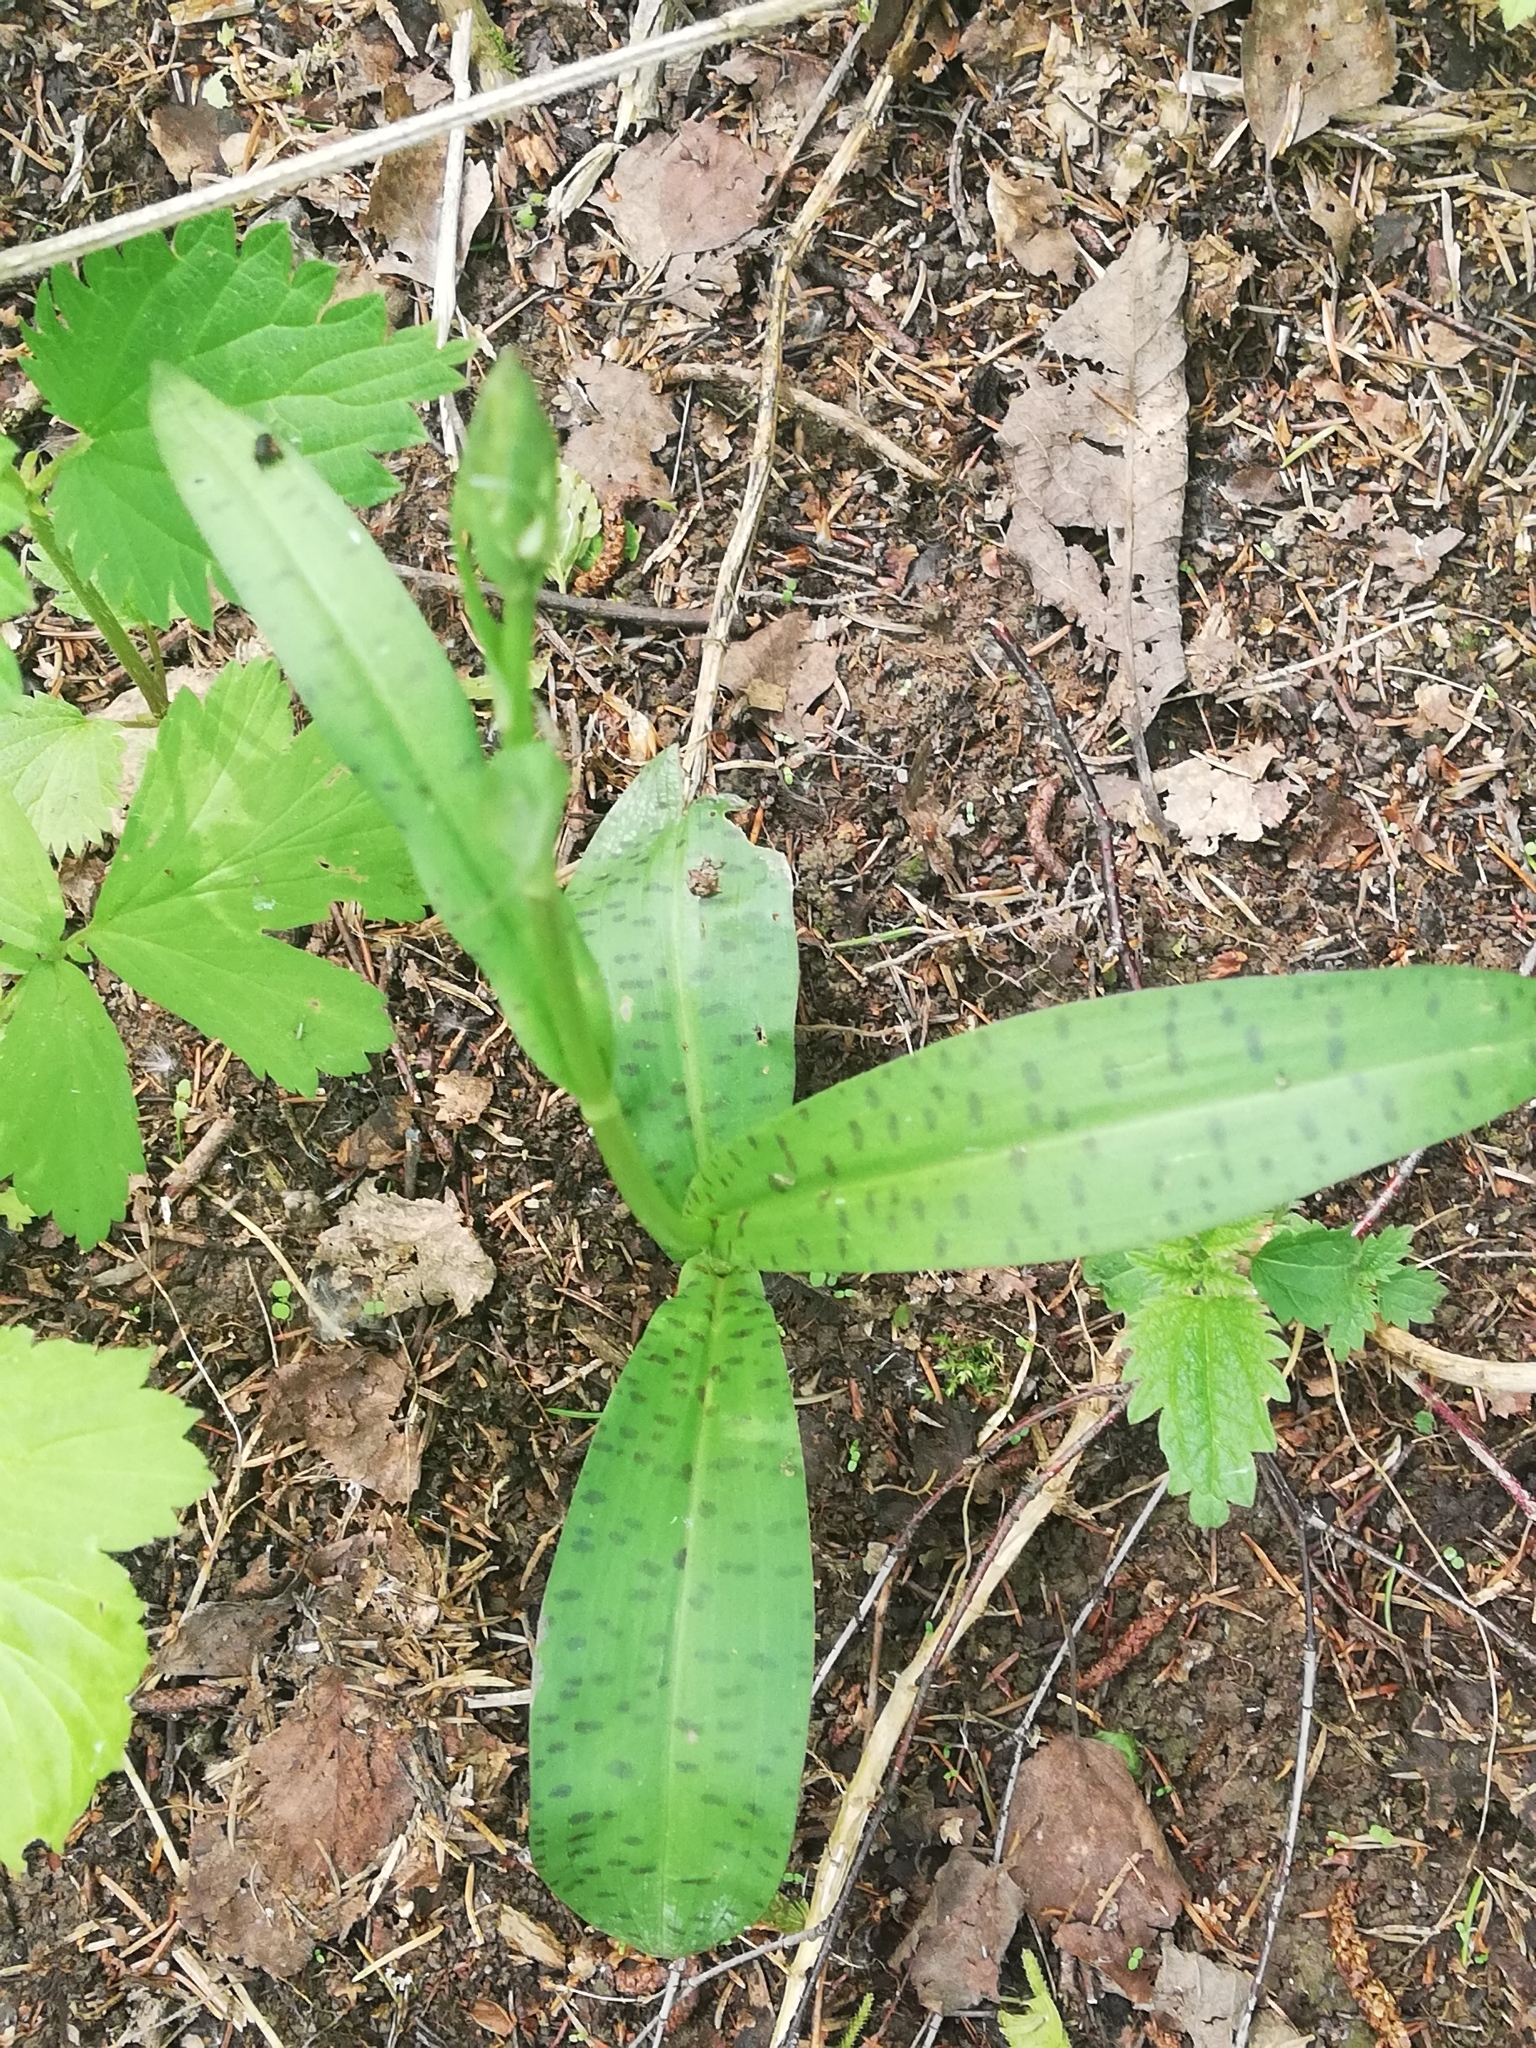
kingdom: Plantae
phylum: Tracheophyta
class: Liliopsida
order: Asparagales
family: Orchidaceae
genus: Dactylorhiza
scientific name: Dactylorhiza maculata
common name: Heath spotted-orchid
